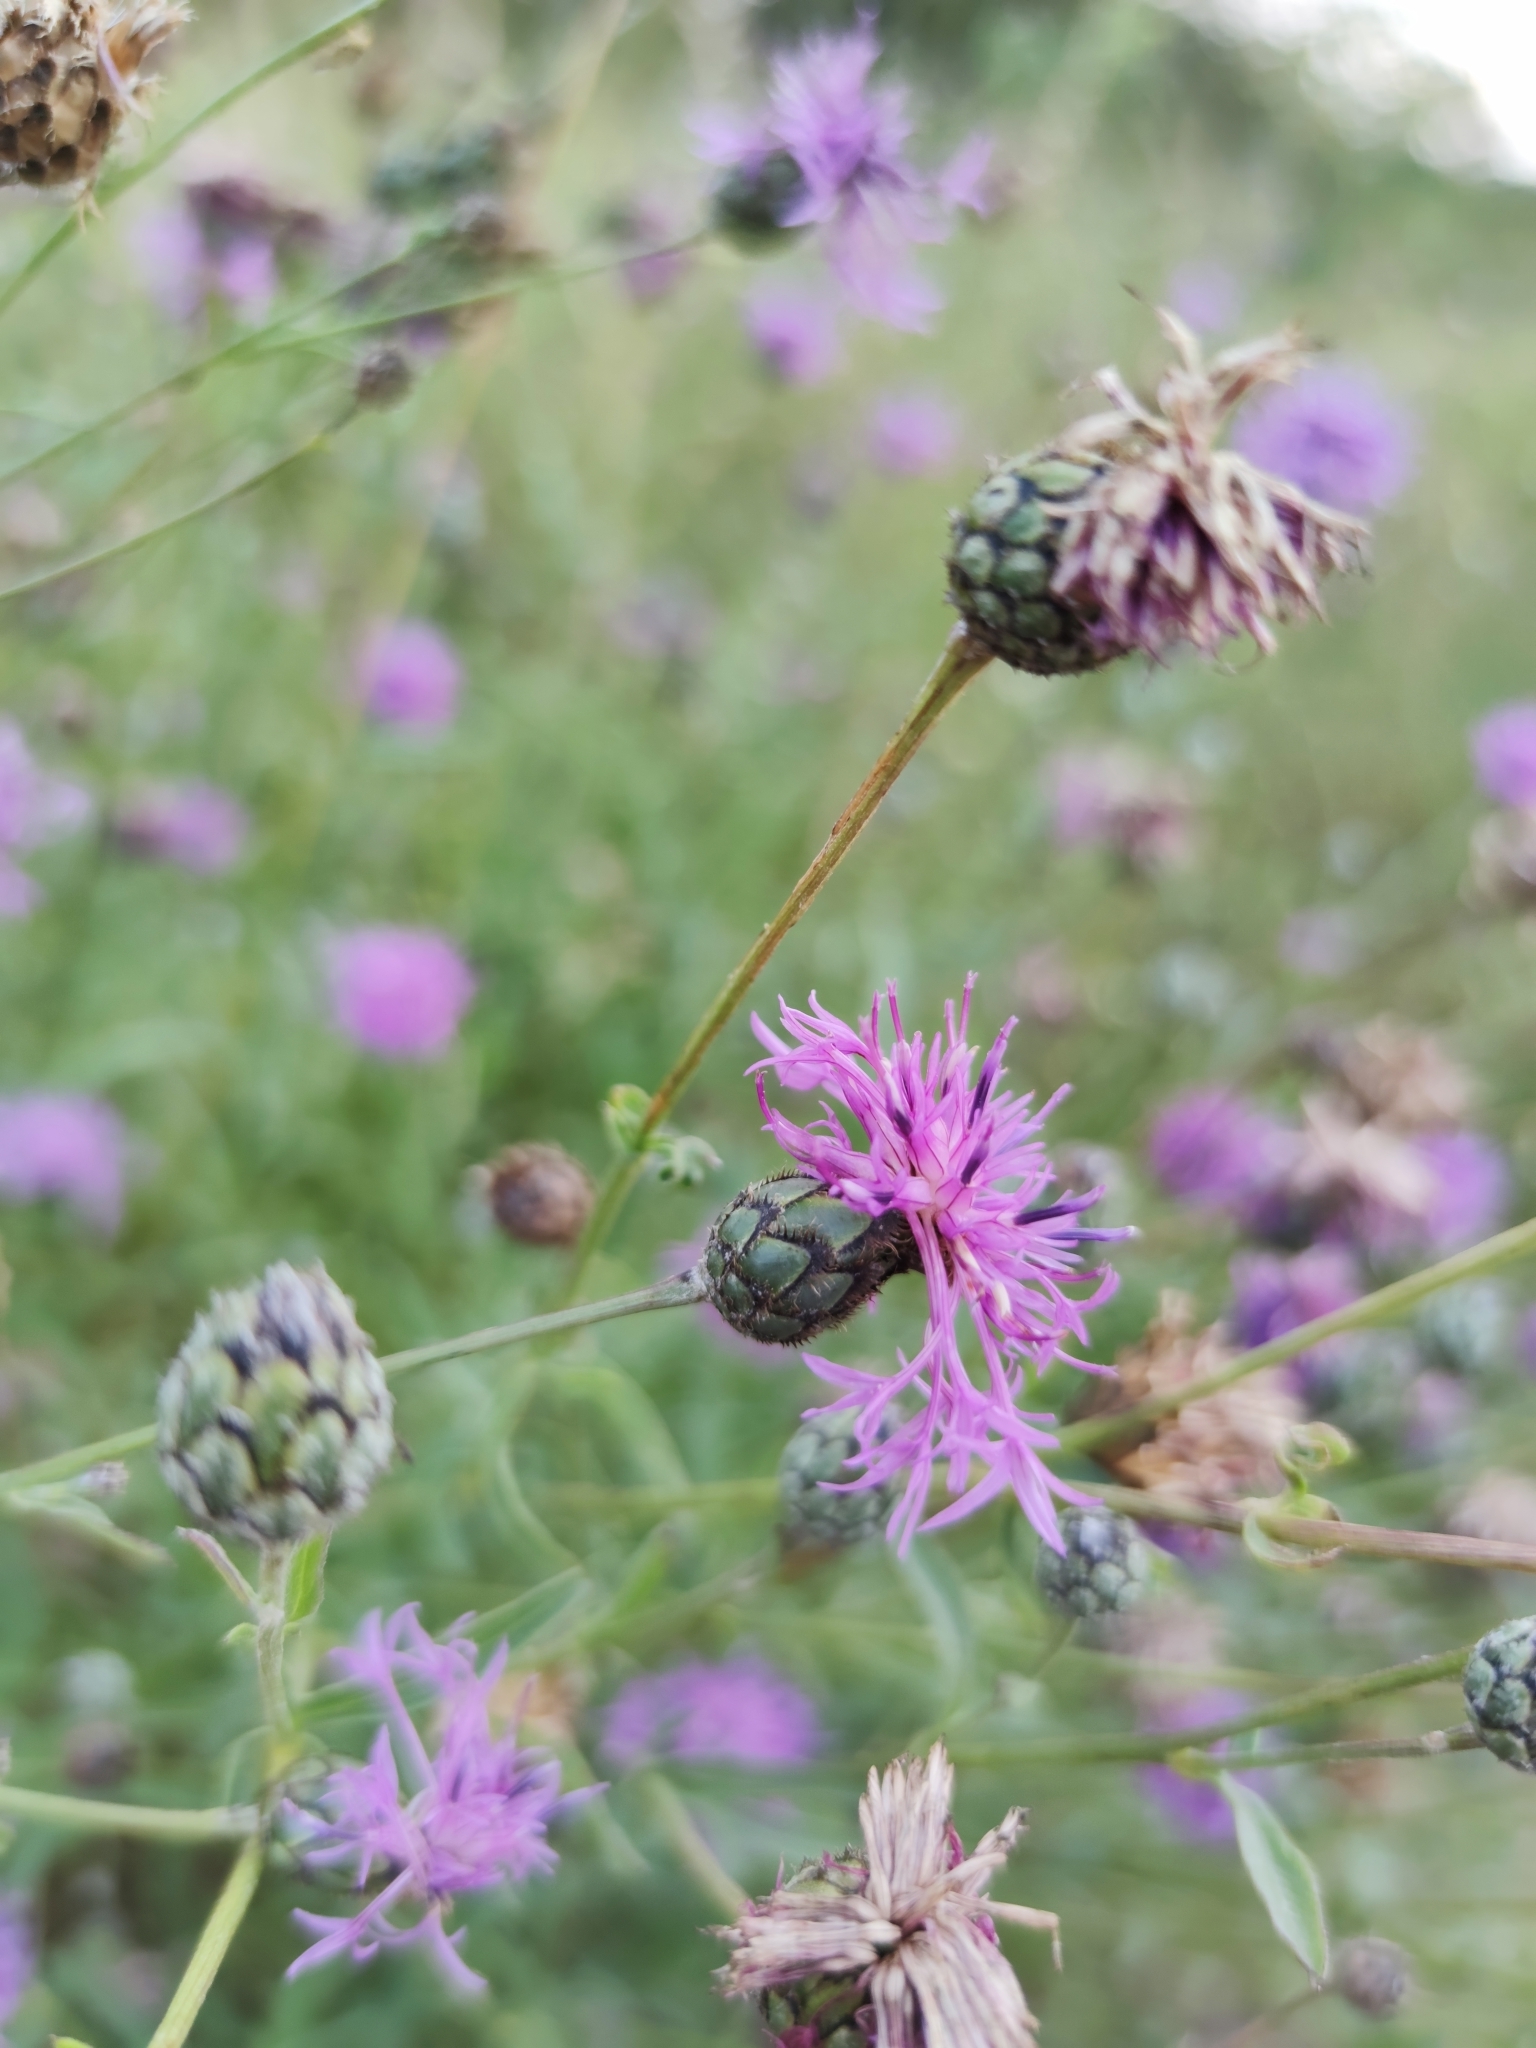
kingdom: Plantae
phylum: Tracheophyta
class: Magnoliopsida
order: Asterales
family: Asteraceae
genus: Centaurea
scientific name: Centaurea scabiosa
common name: Greater knapweed
